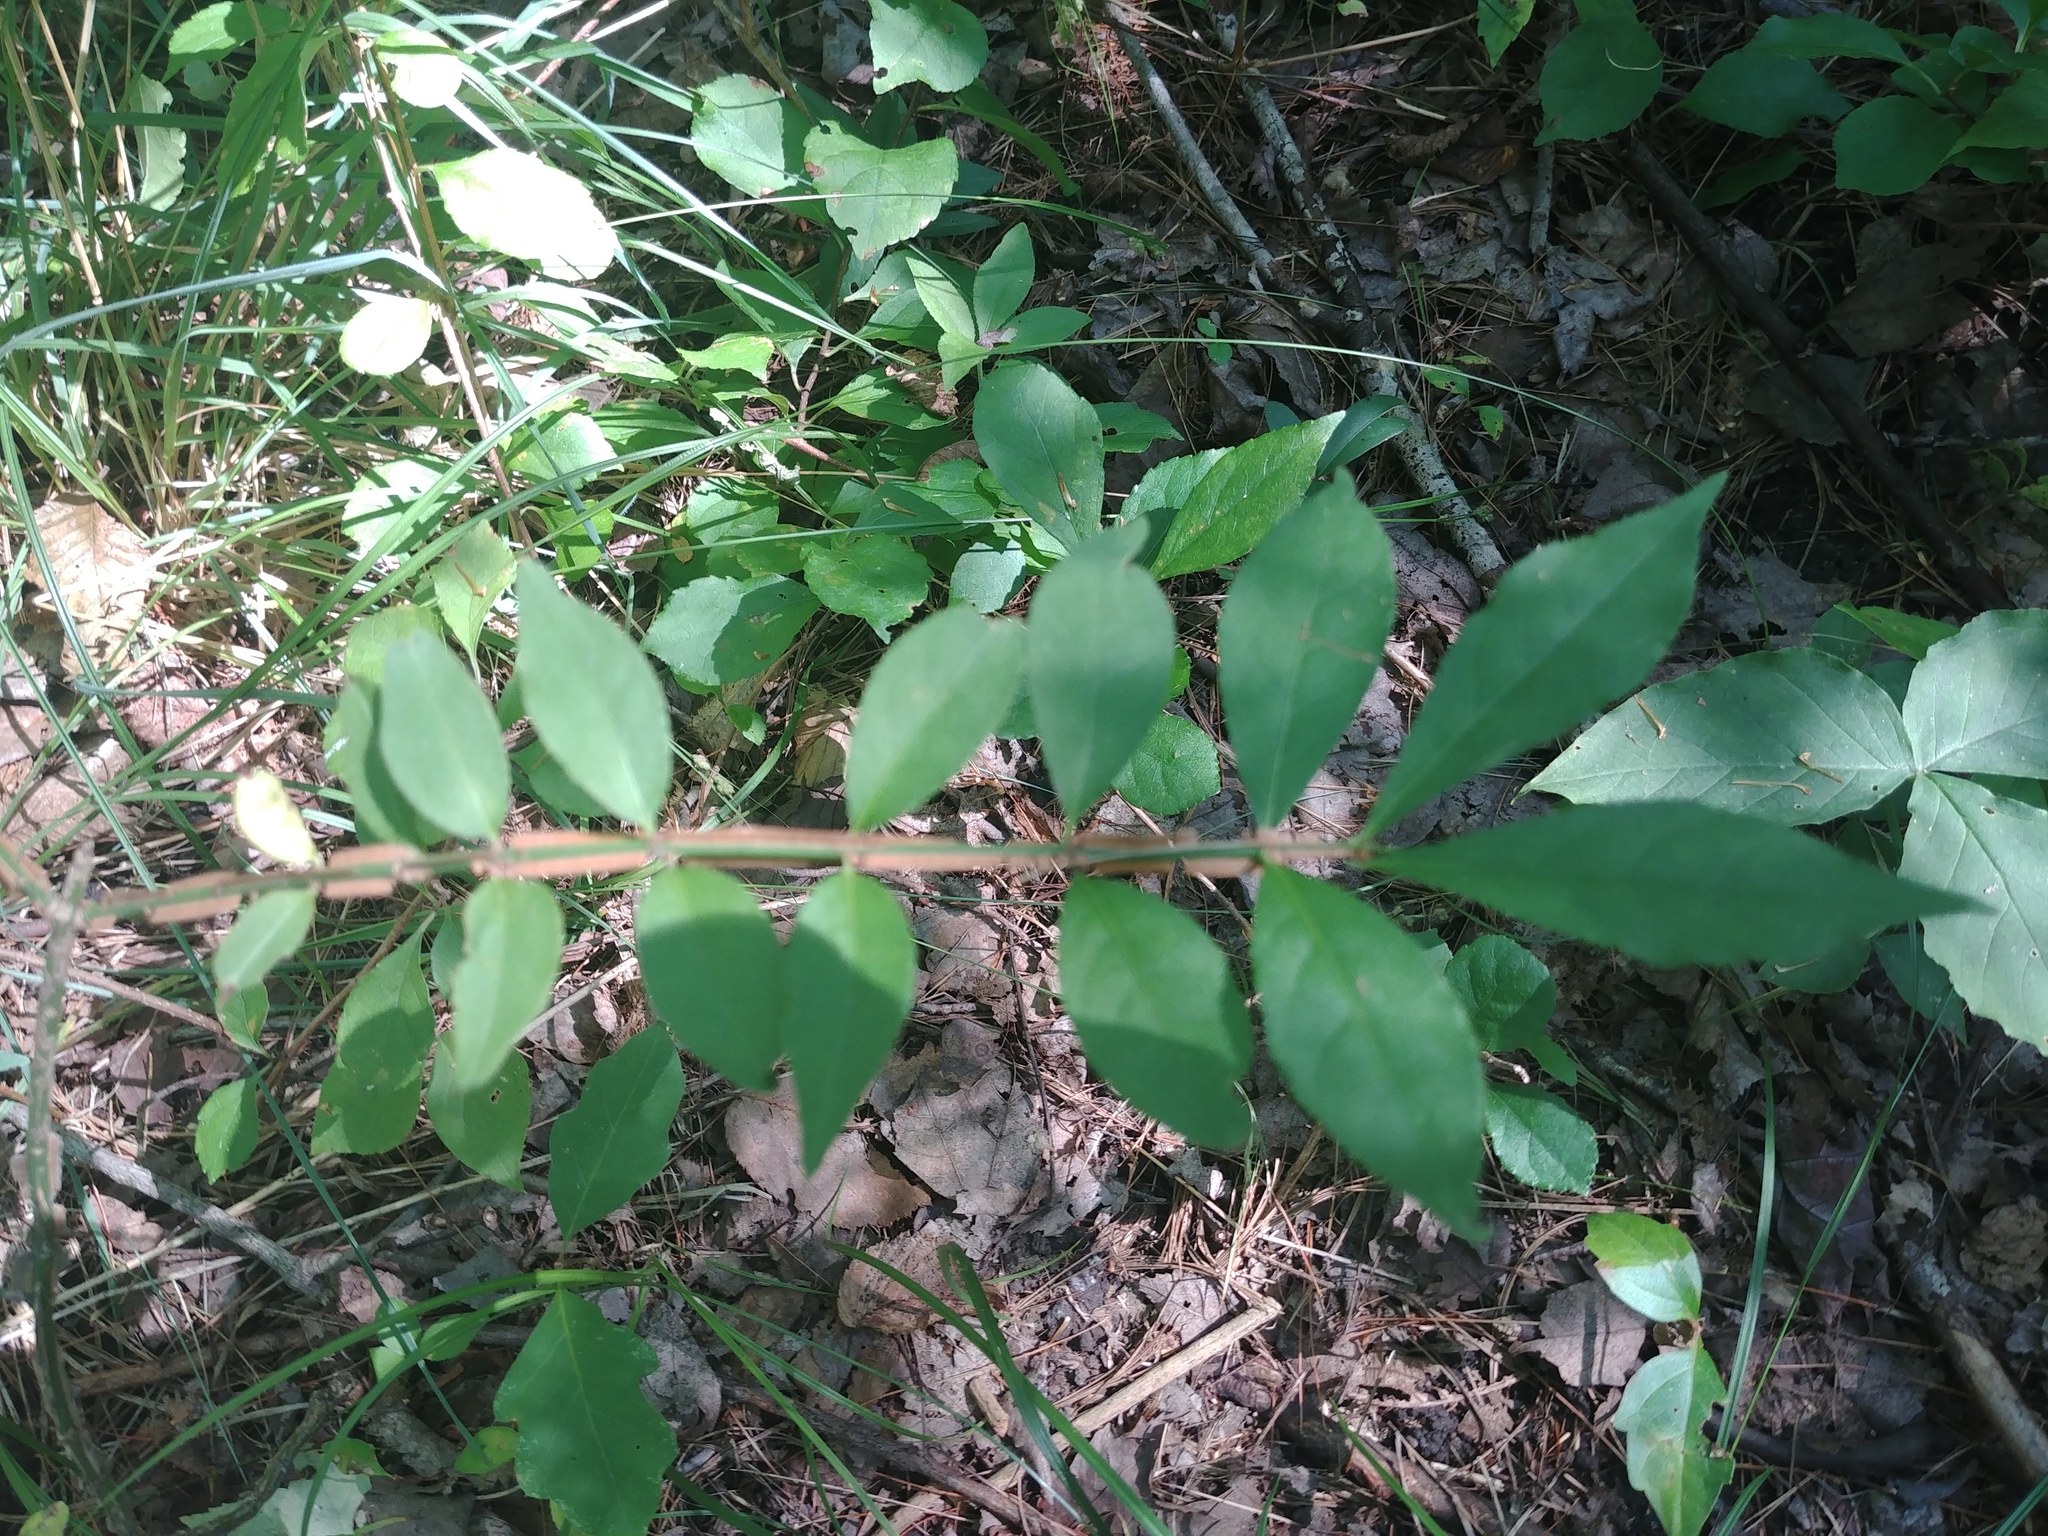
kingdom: Plantae
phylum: Tracheophyta
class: Magnoliopsida
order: Celastrales
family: Celastraceae
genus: Euonymus
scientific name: Euonymus alatus
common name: Winged euonymus
